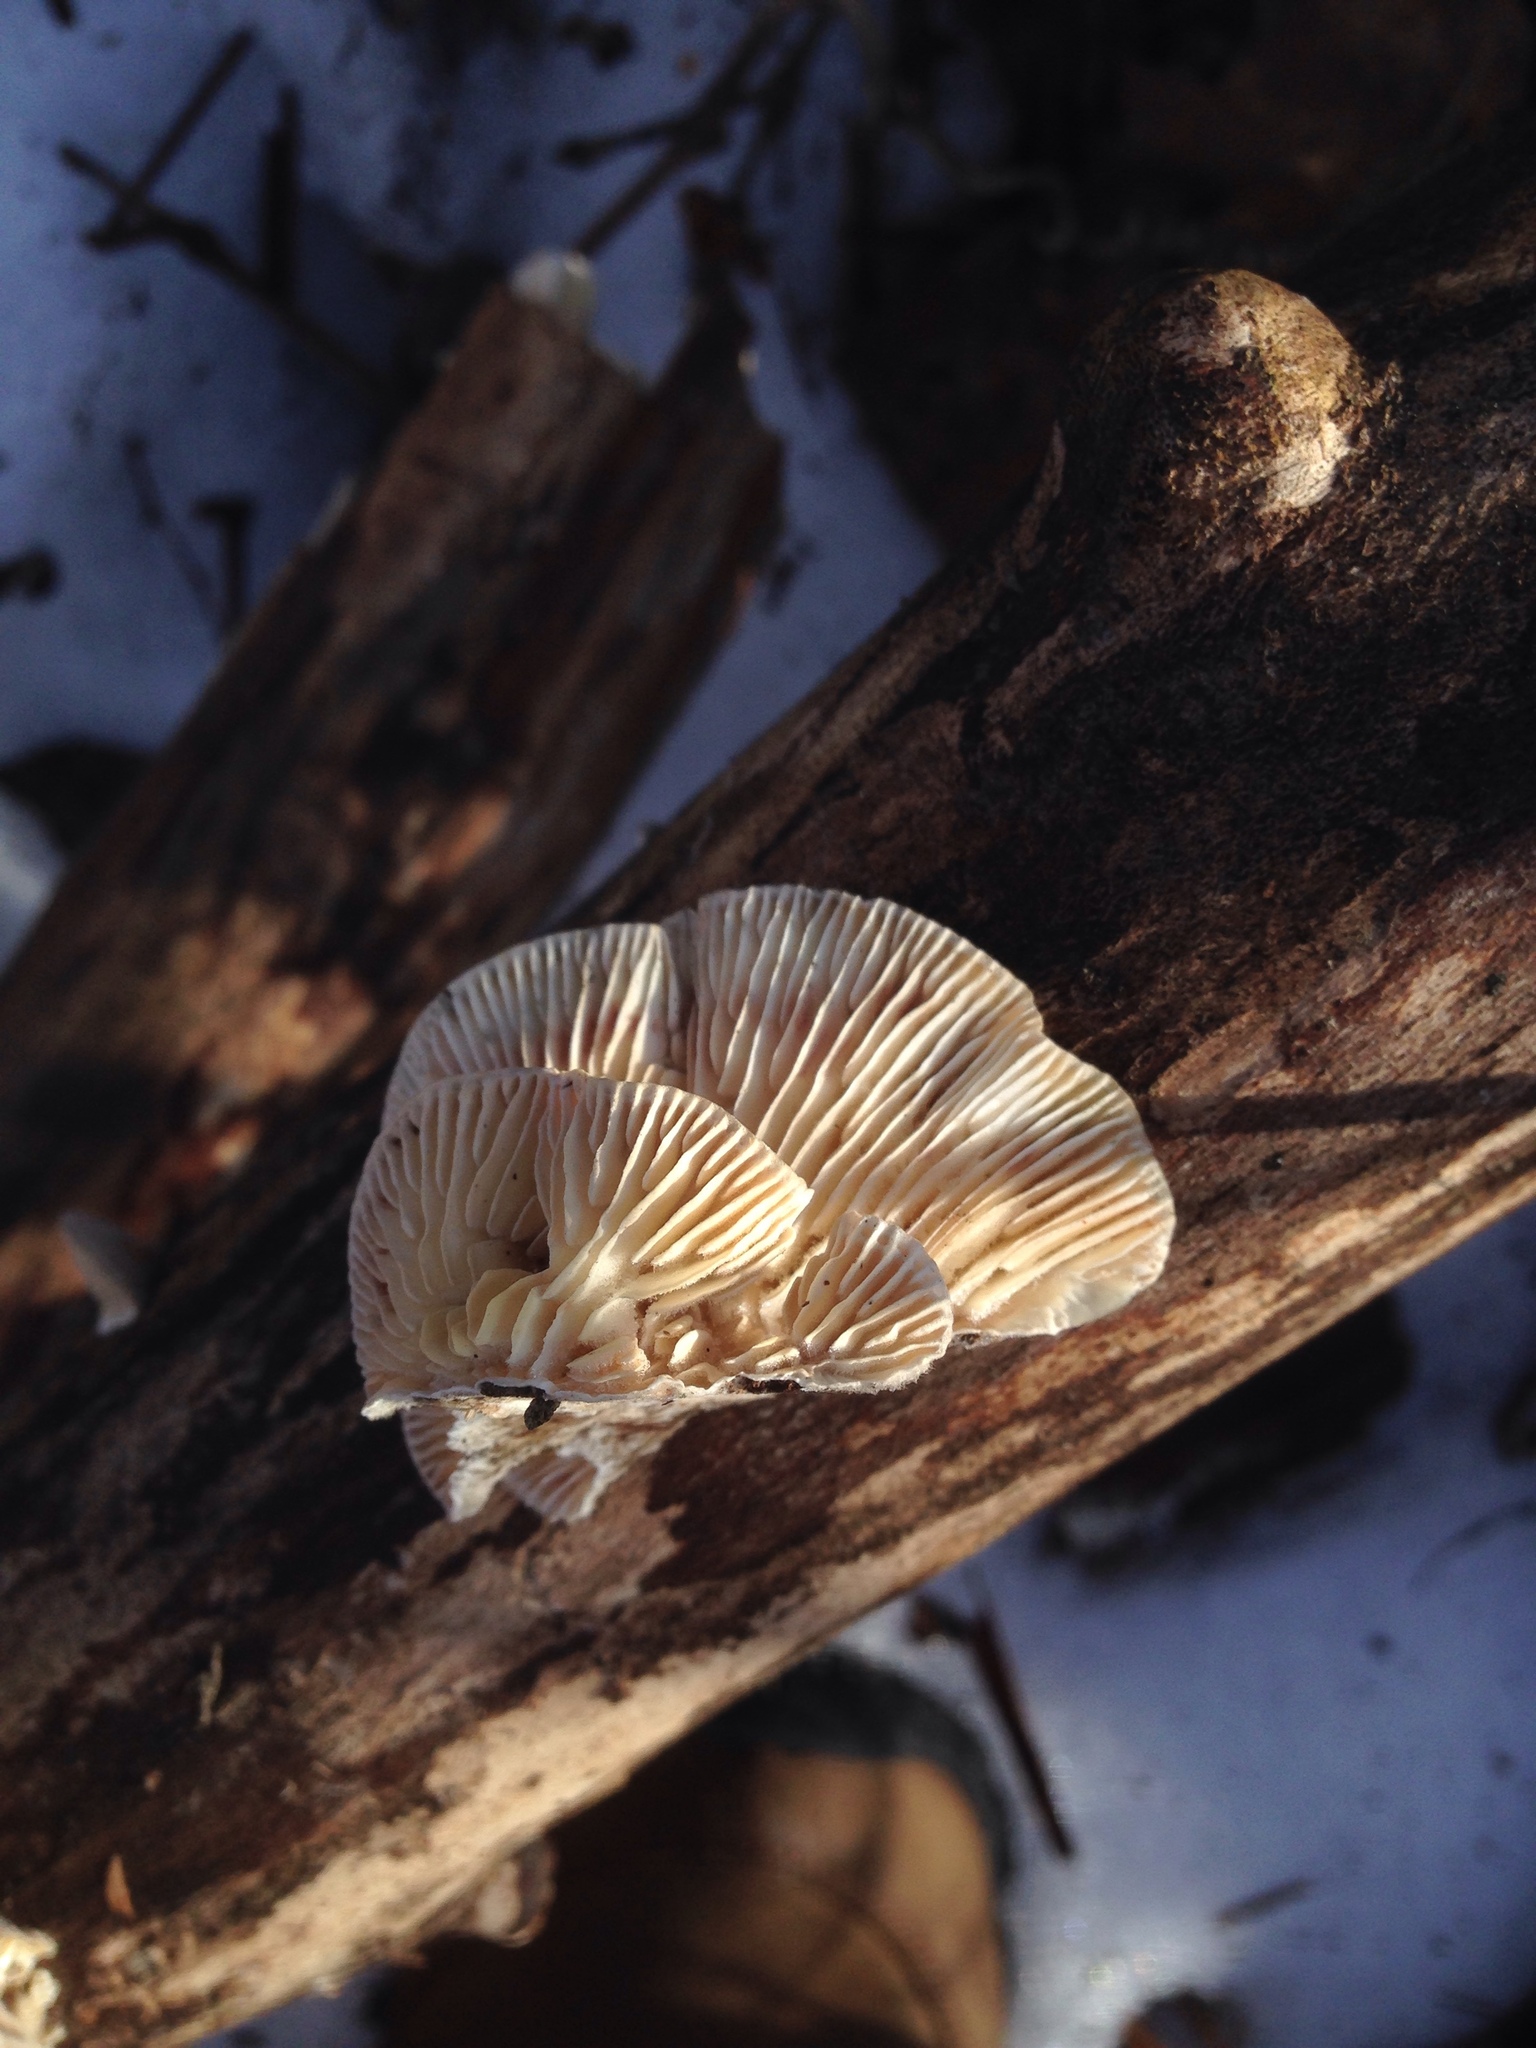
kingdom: Fungi
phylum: Basidiomycota
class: Agaricomycetes
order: Polyporales
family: Polyporaceae
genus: Lenzites
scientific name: Lenzites betulinus
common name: Birch mazegill
